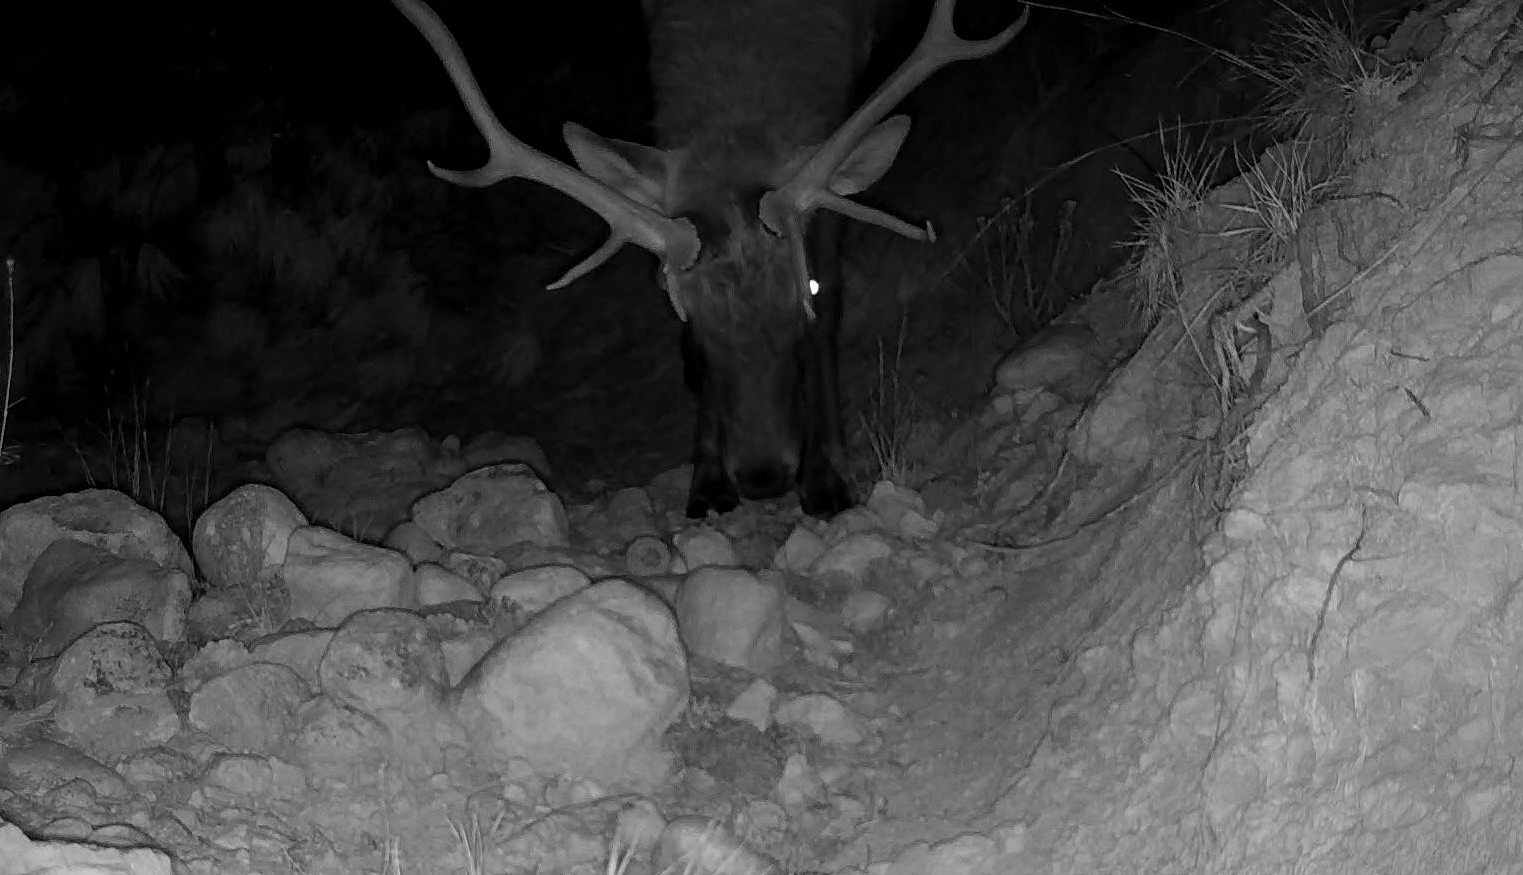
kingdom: Animalia
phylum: Chordata
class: Mammalia
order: Artiodactyla
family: Cervidae
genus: Cervus
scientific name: Cervus elaphus
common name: Red deer
